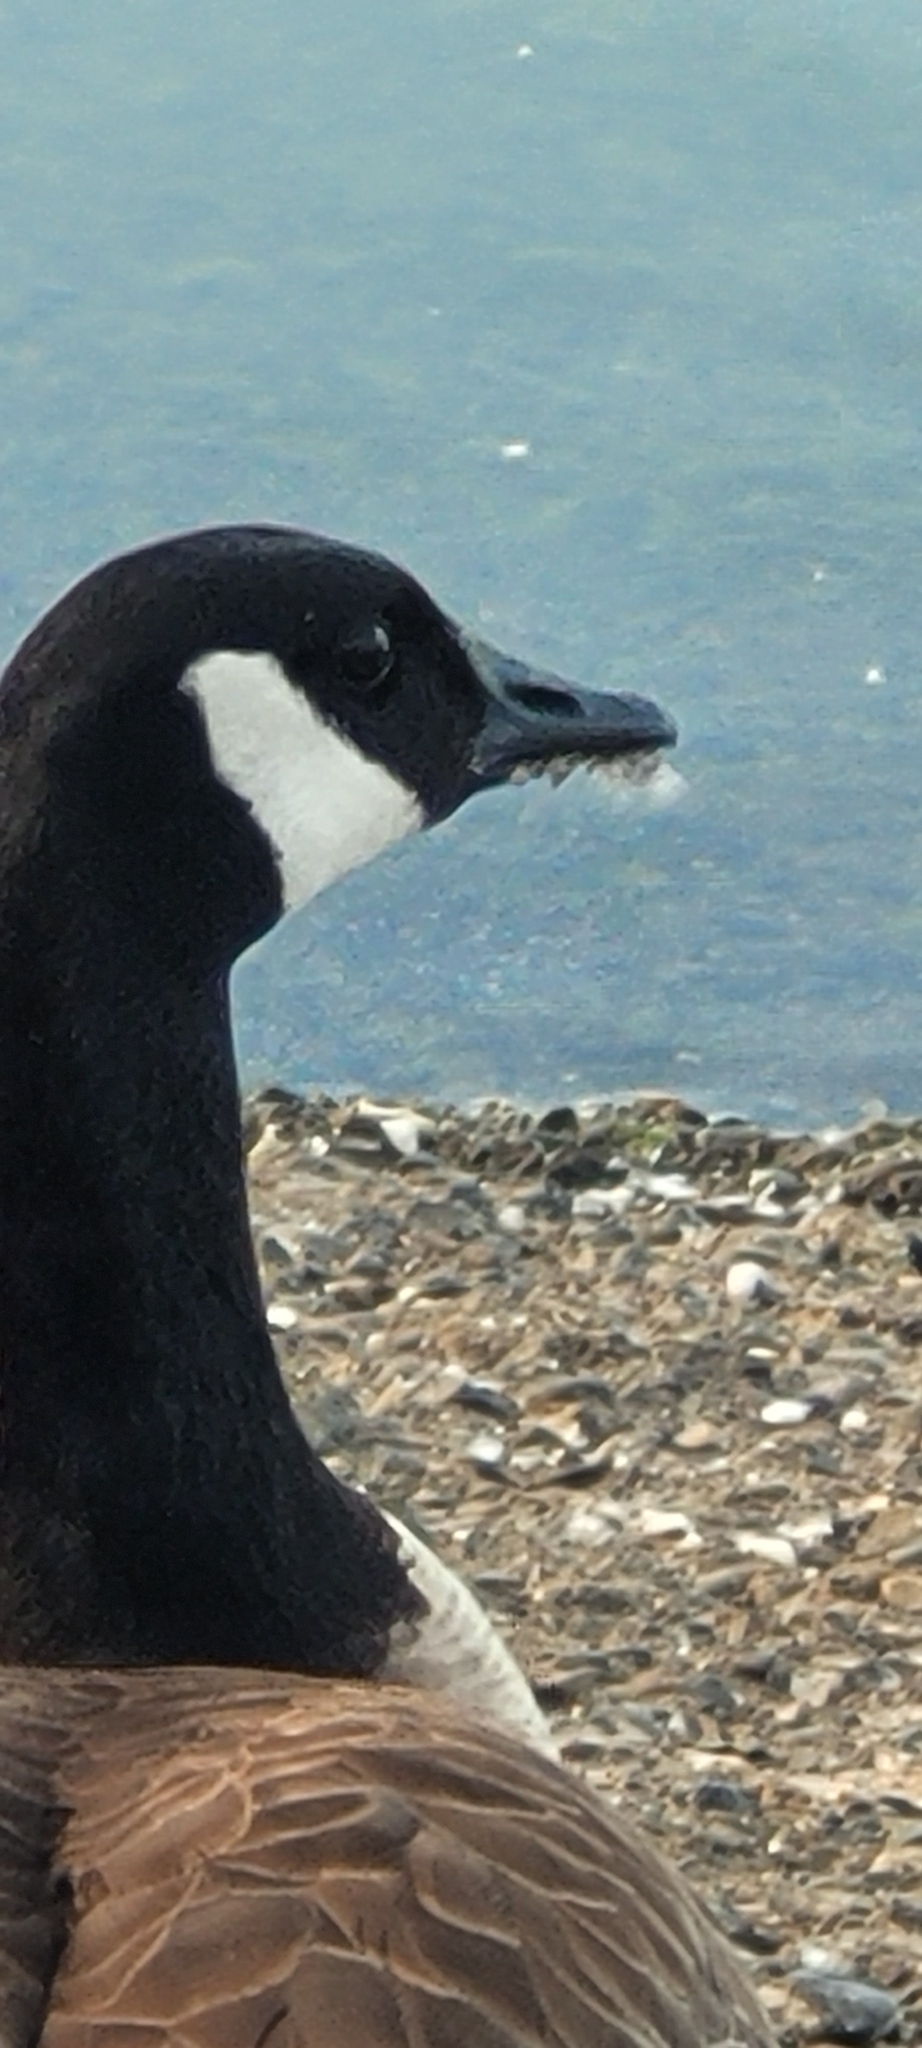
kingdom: Animalia
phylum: Chordata
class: Aves
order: Anseriformes
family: Anatidae
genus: Branta
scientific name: Branta canadensis
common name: Canada goose
